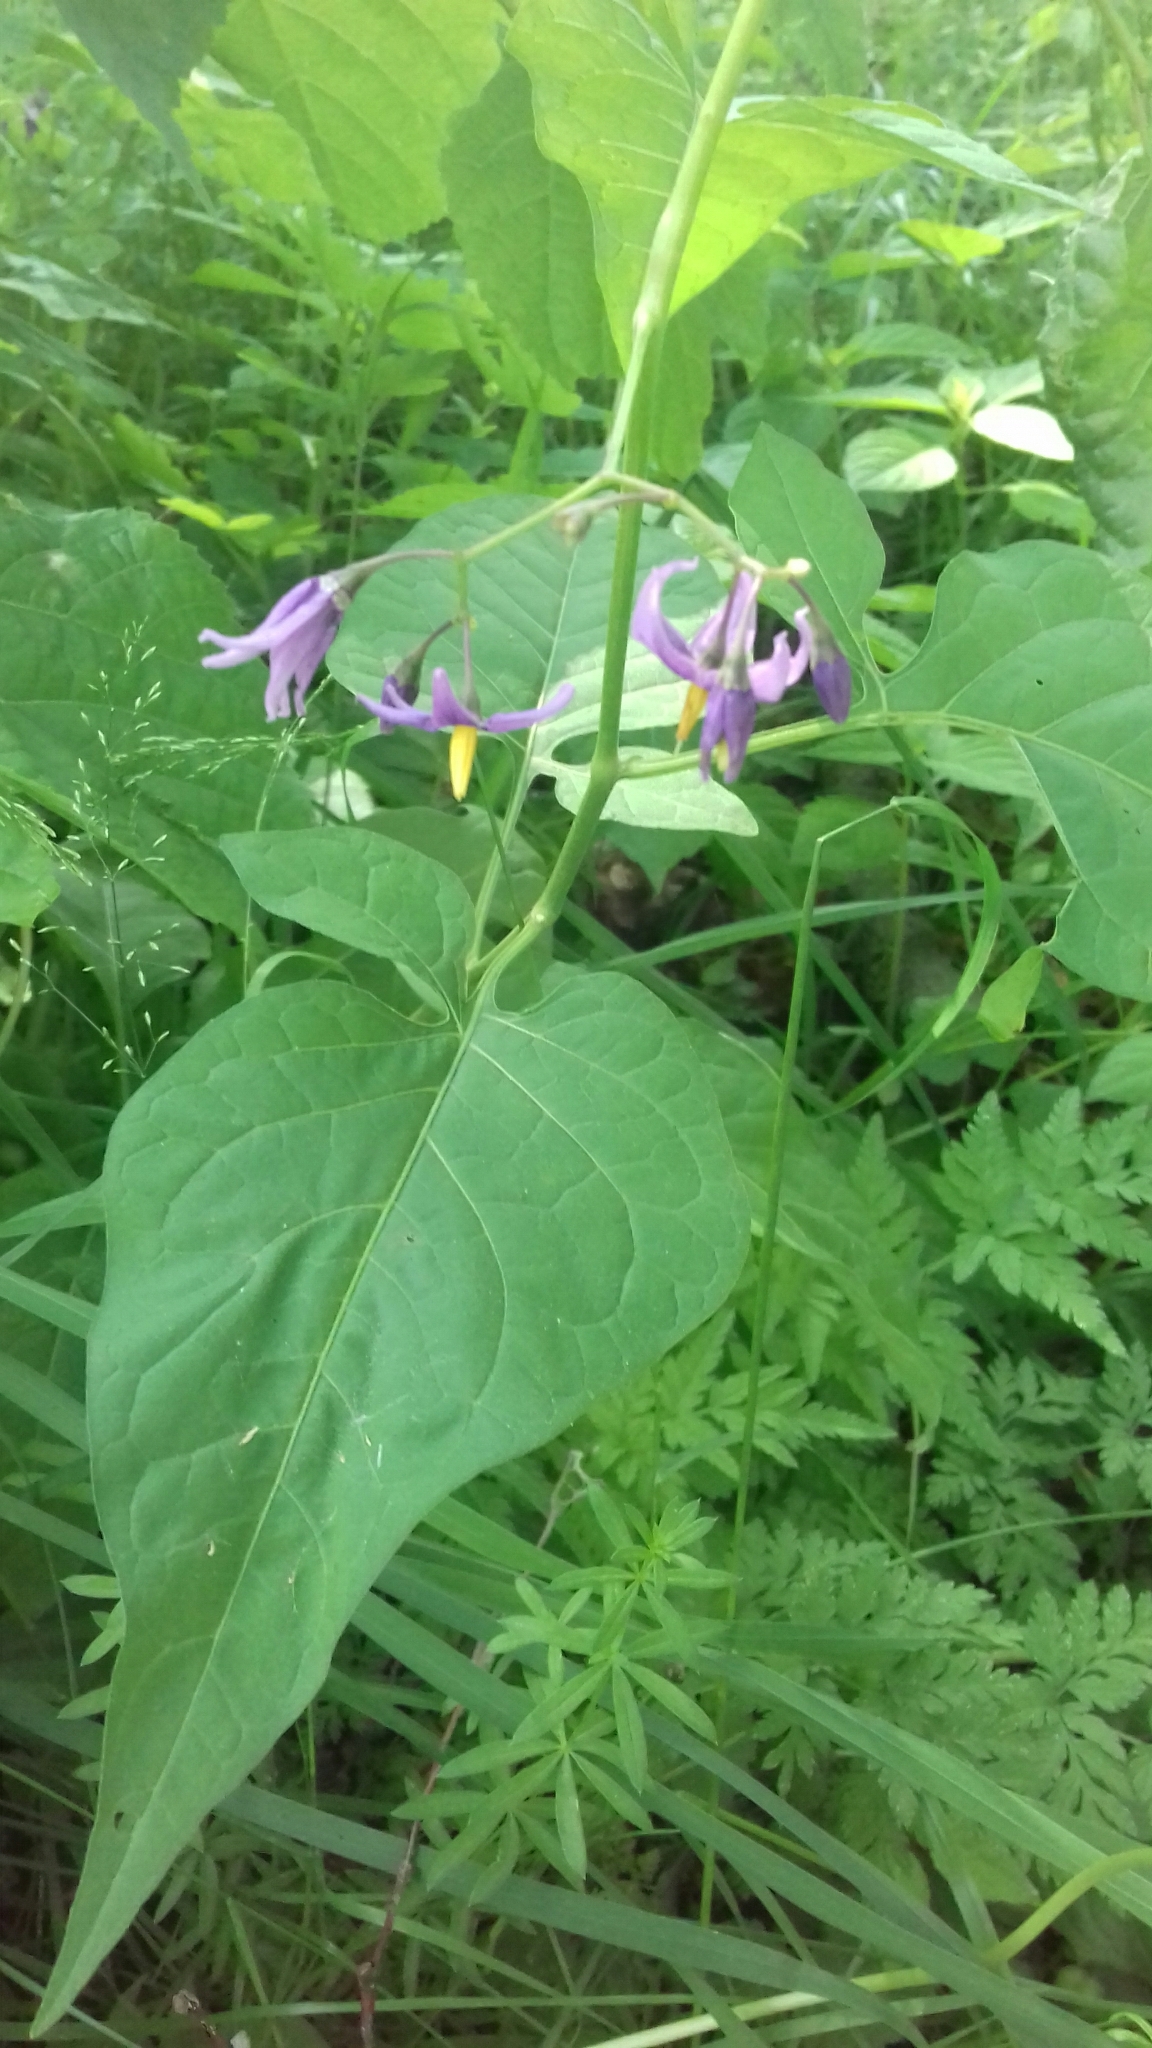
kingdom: Plantae
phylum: Tracheophyta
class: Magnoliopsida
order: Solanales
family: Solanaceae
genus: Solanum
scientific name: Solanum dulcamara
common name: Climbing nightshade
